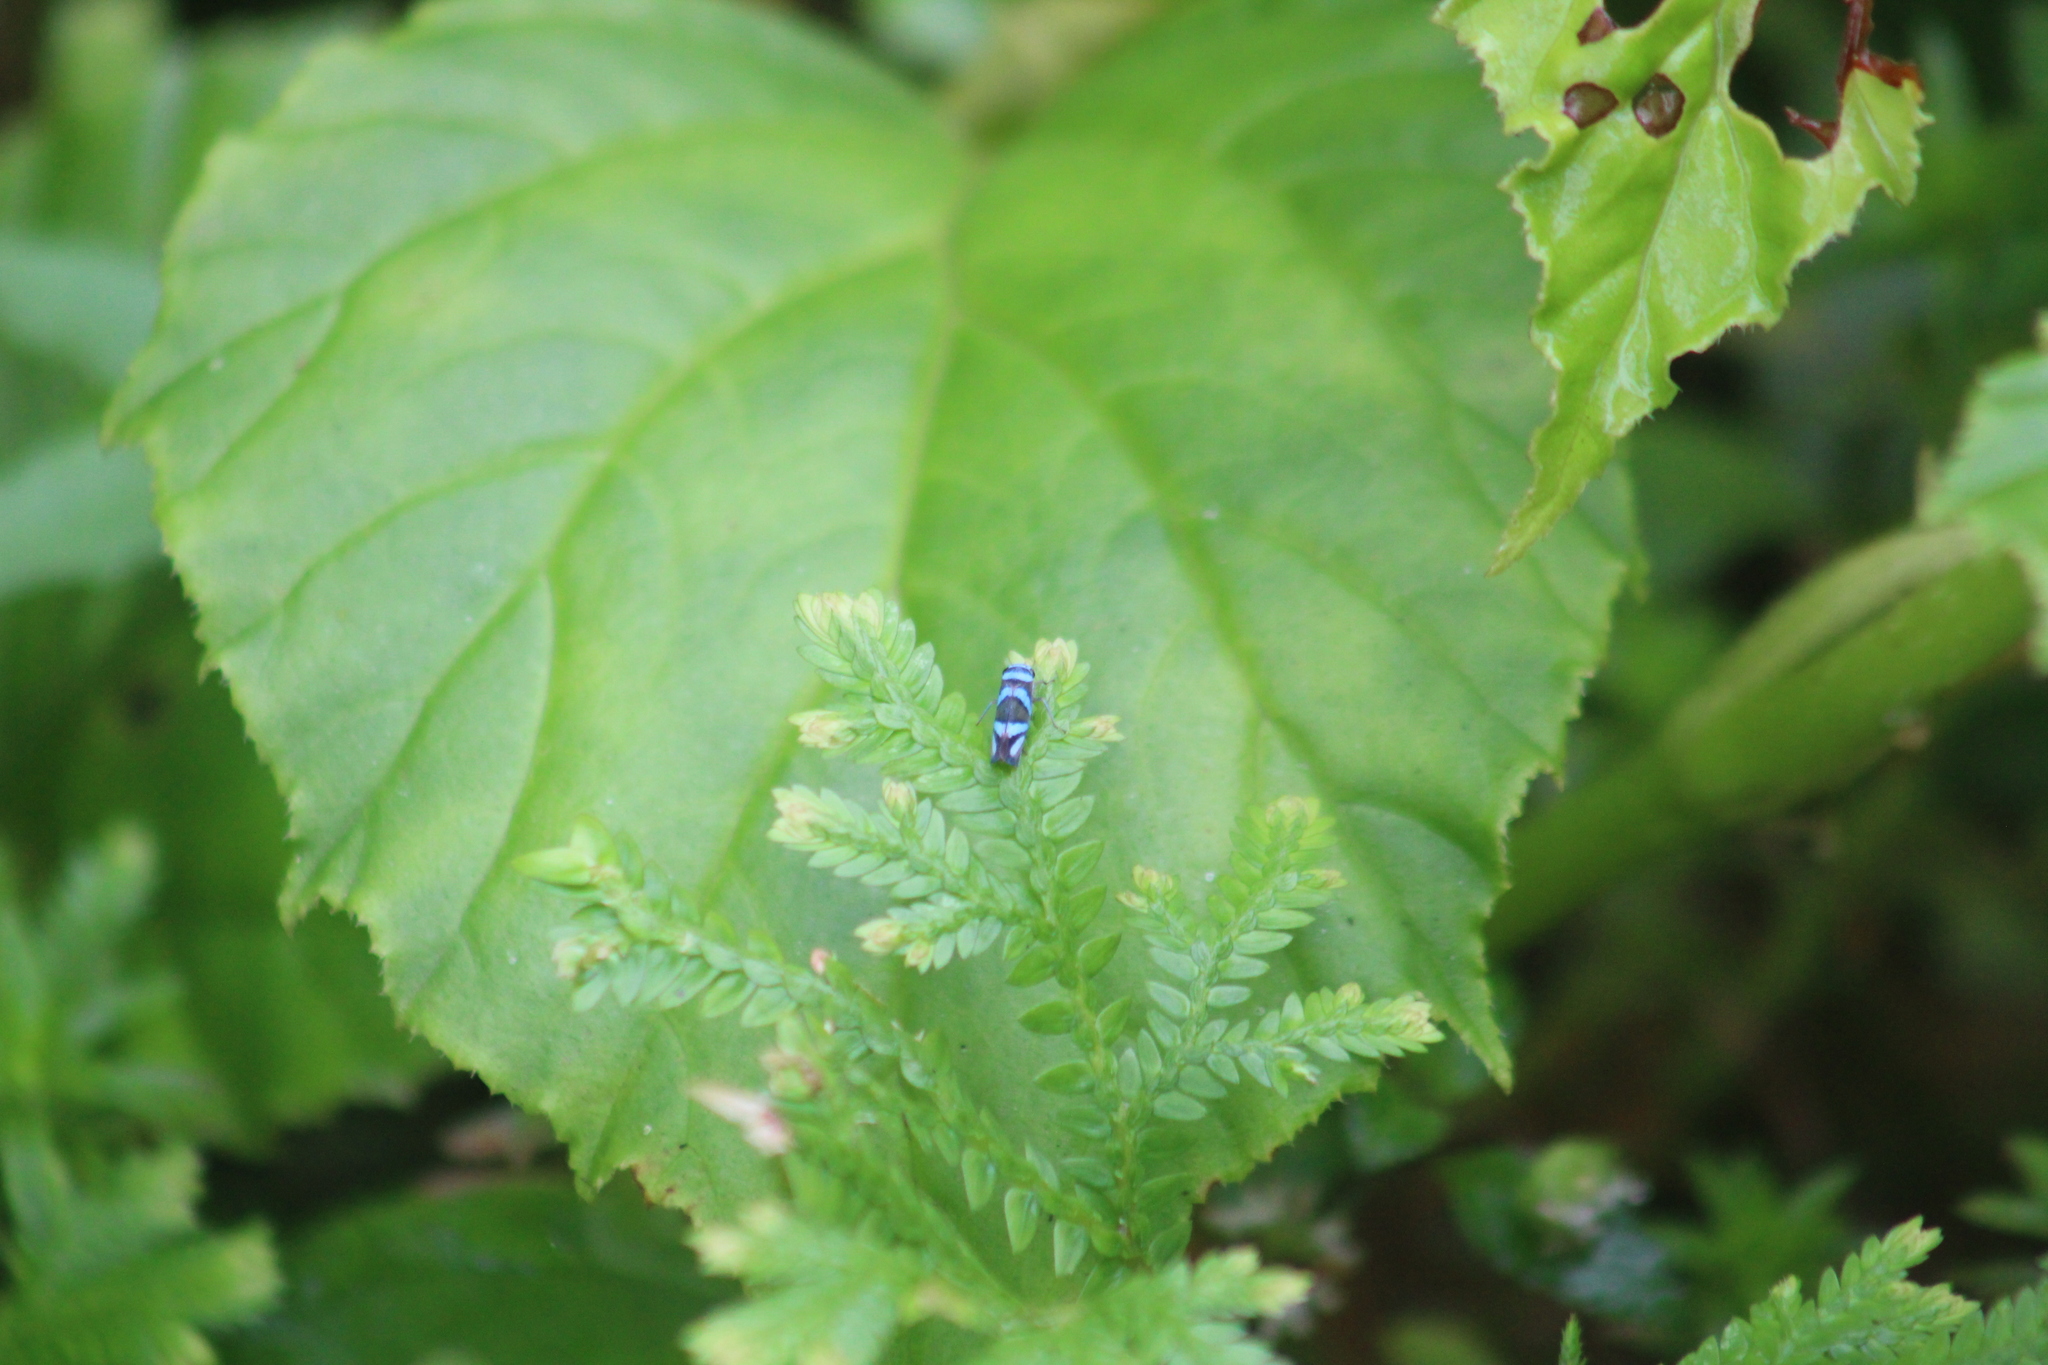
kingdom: Animalia
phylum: Arthropoda
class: Insecta
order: Hemiptera
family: Cicadellidae
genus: Macugonalia
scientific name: Macugonalia moesta
